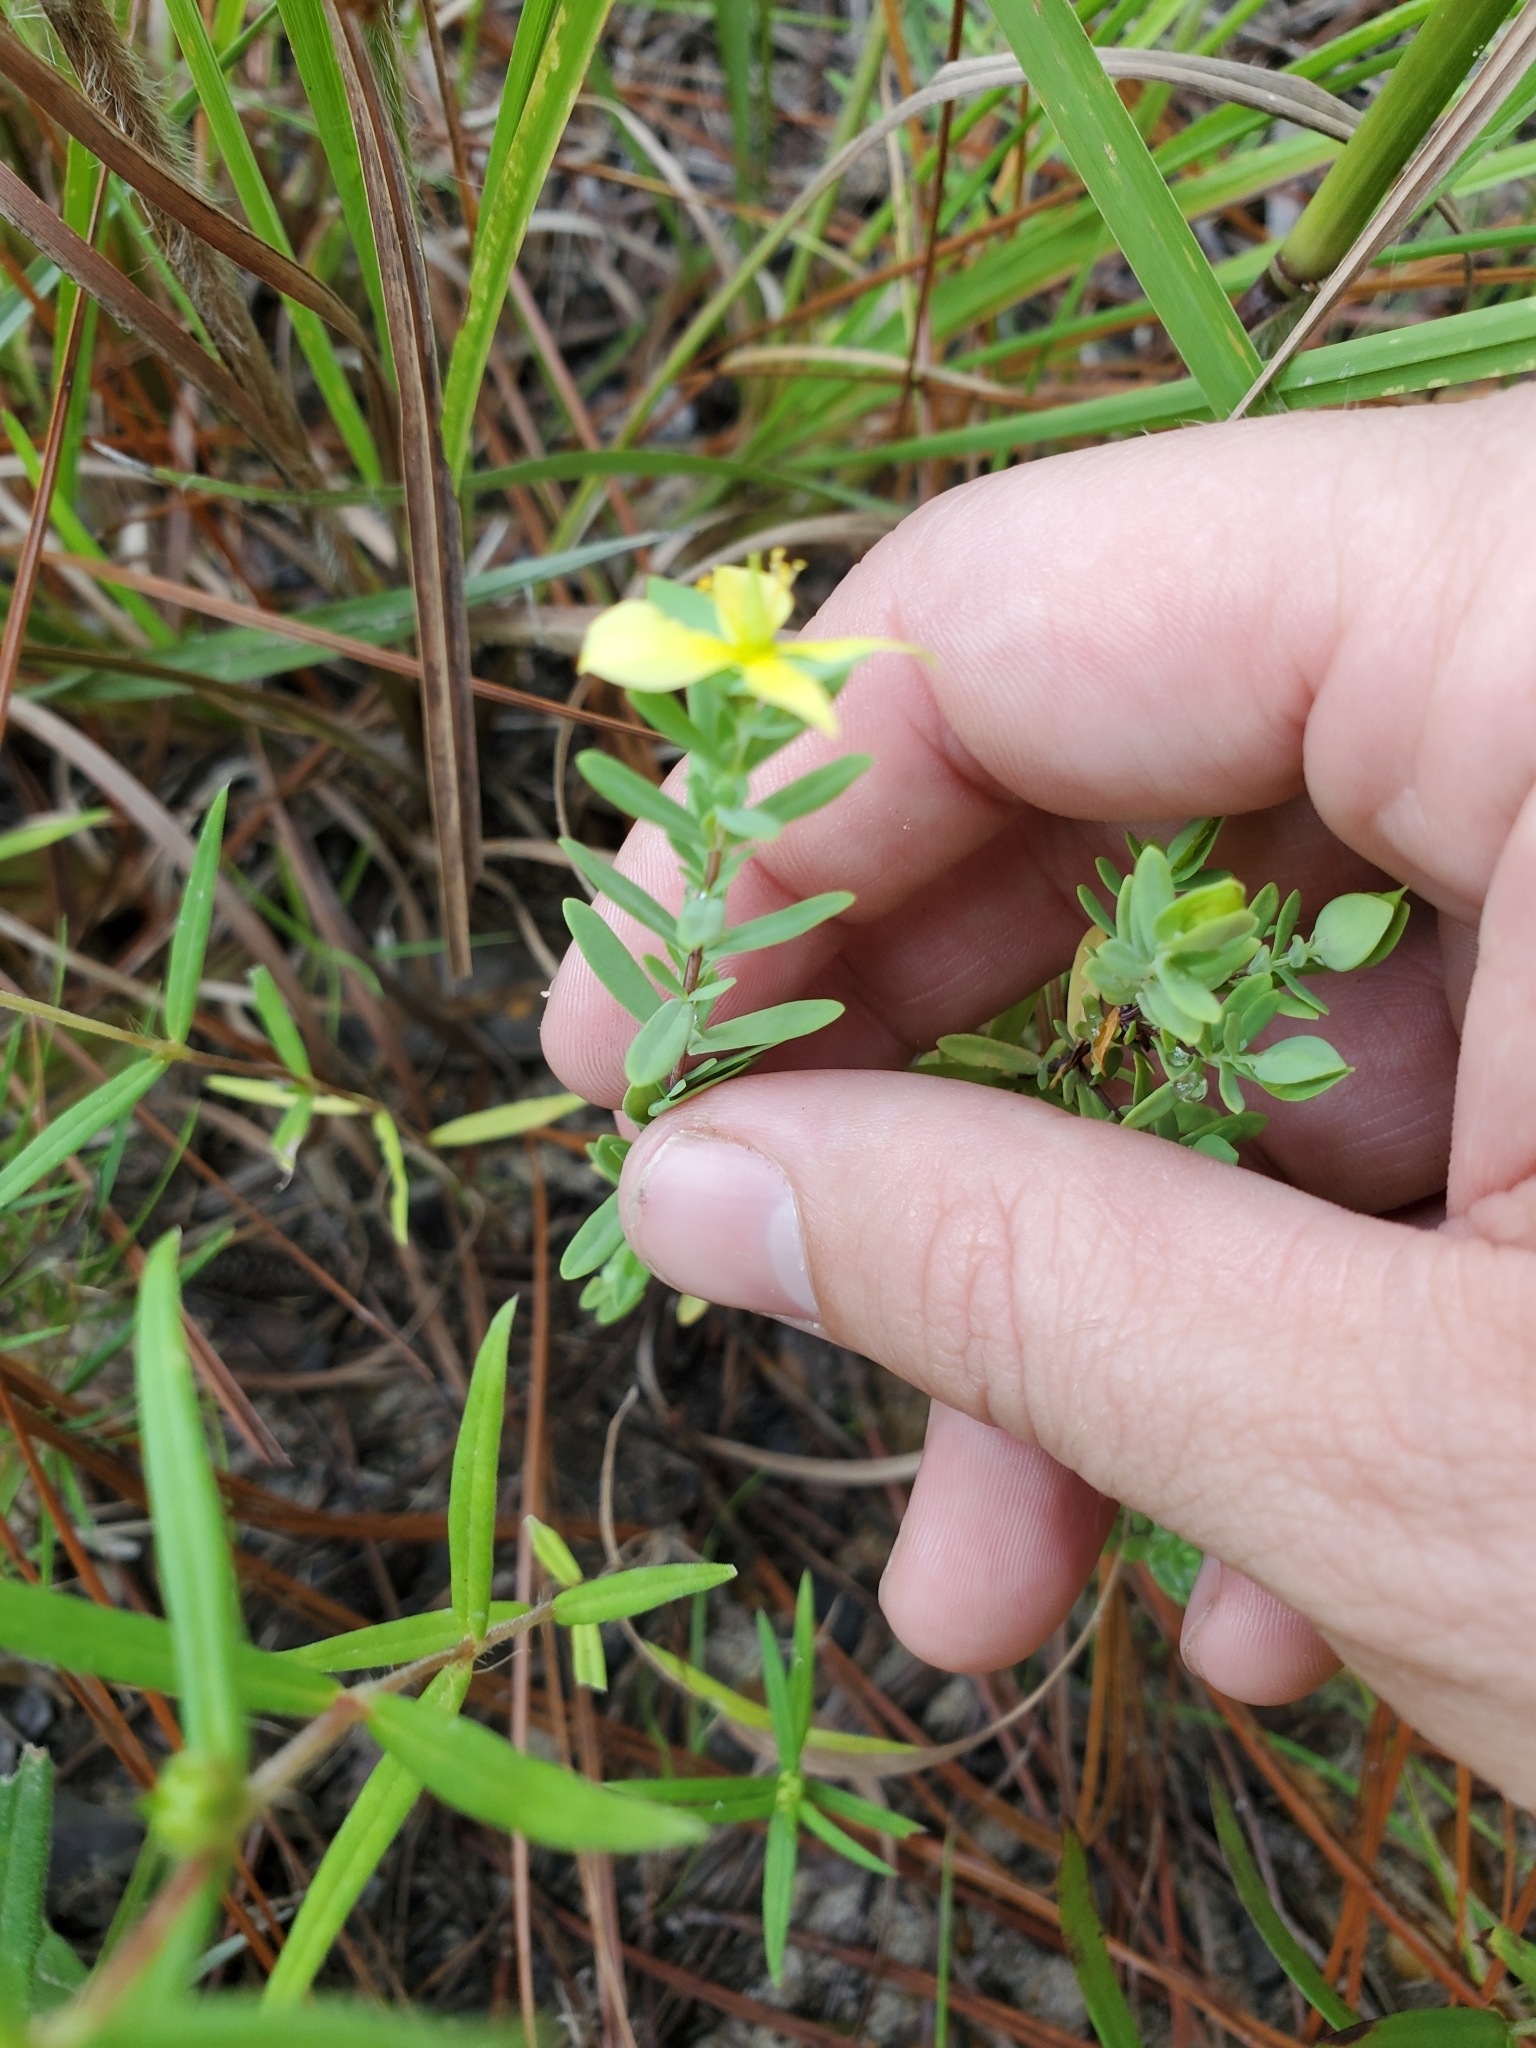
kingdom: Plantae
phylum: Tracheophyta
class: Magnoliopsida
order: Malpighiales
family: Hypericaceae
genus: Hypericum
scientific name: Hypericum hypericoides
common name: St. andrew's cross
